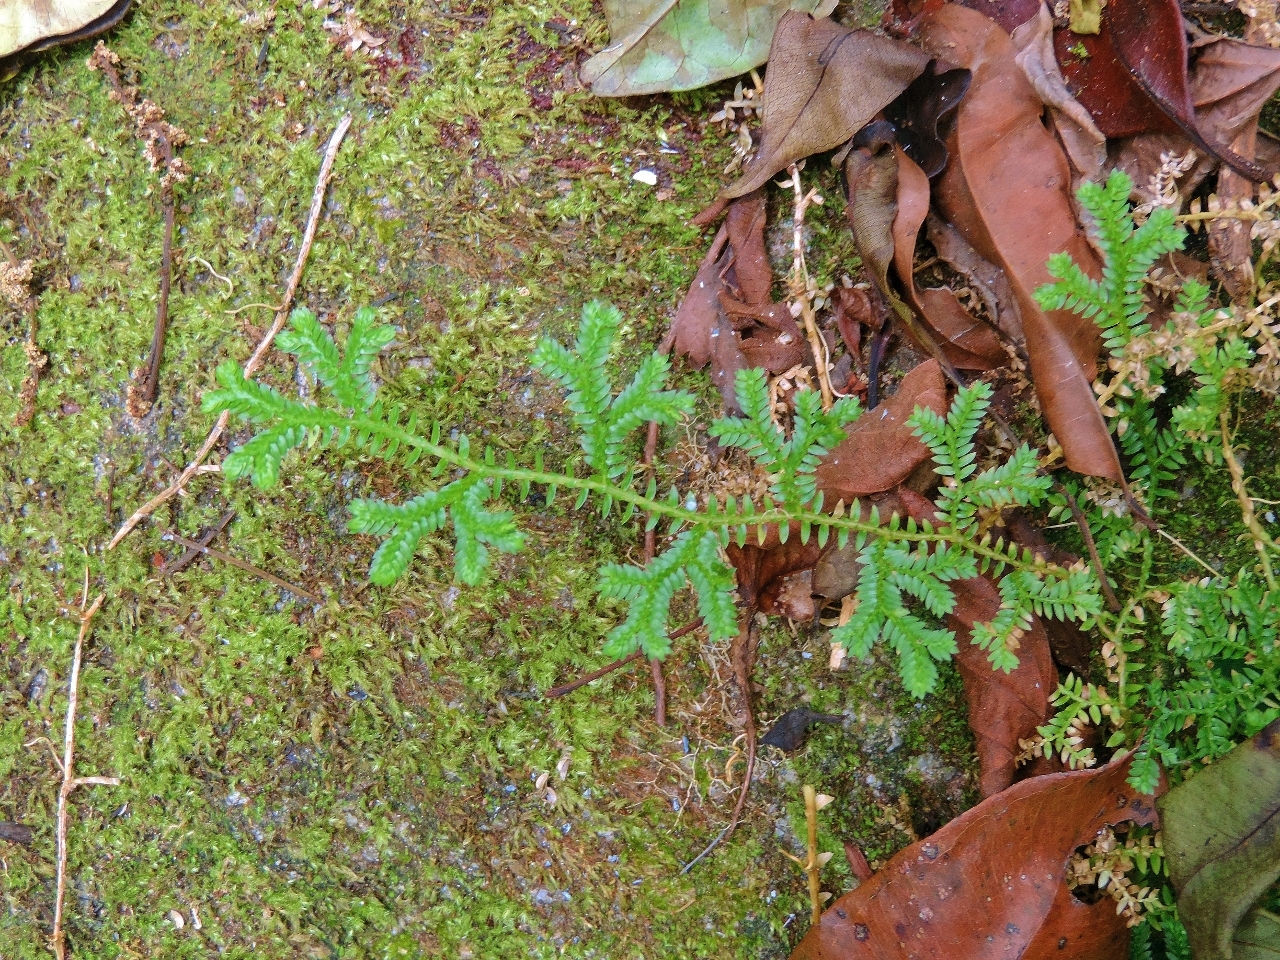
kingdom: Plantae
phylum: Tracheophyta
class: Lycopodiopsida
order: Selaginellales
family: Selaginellaceae
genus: Selaginella
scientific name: Selaginella kraussiana
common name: Krauss' spikemoss
